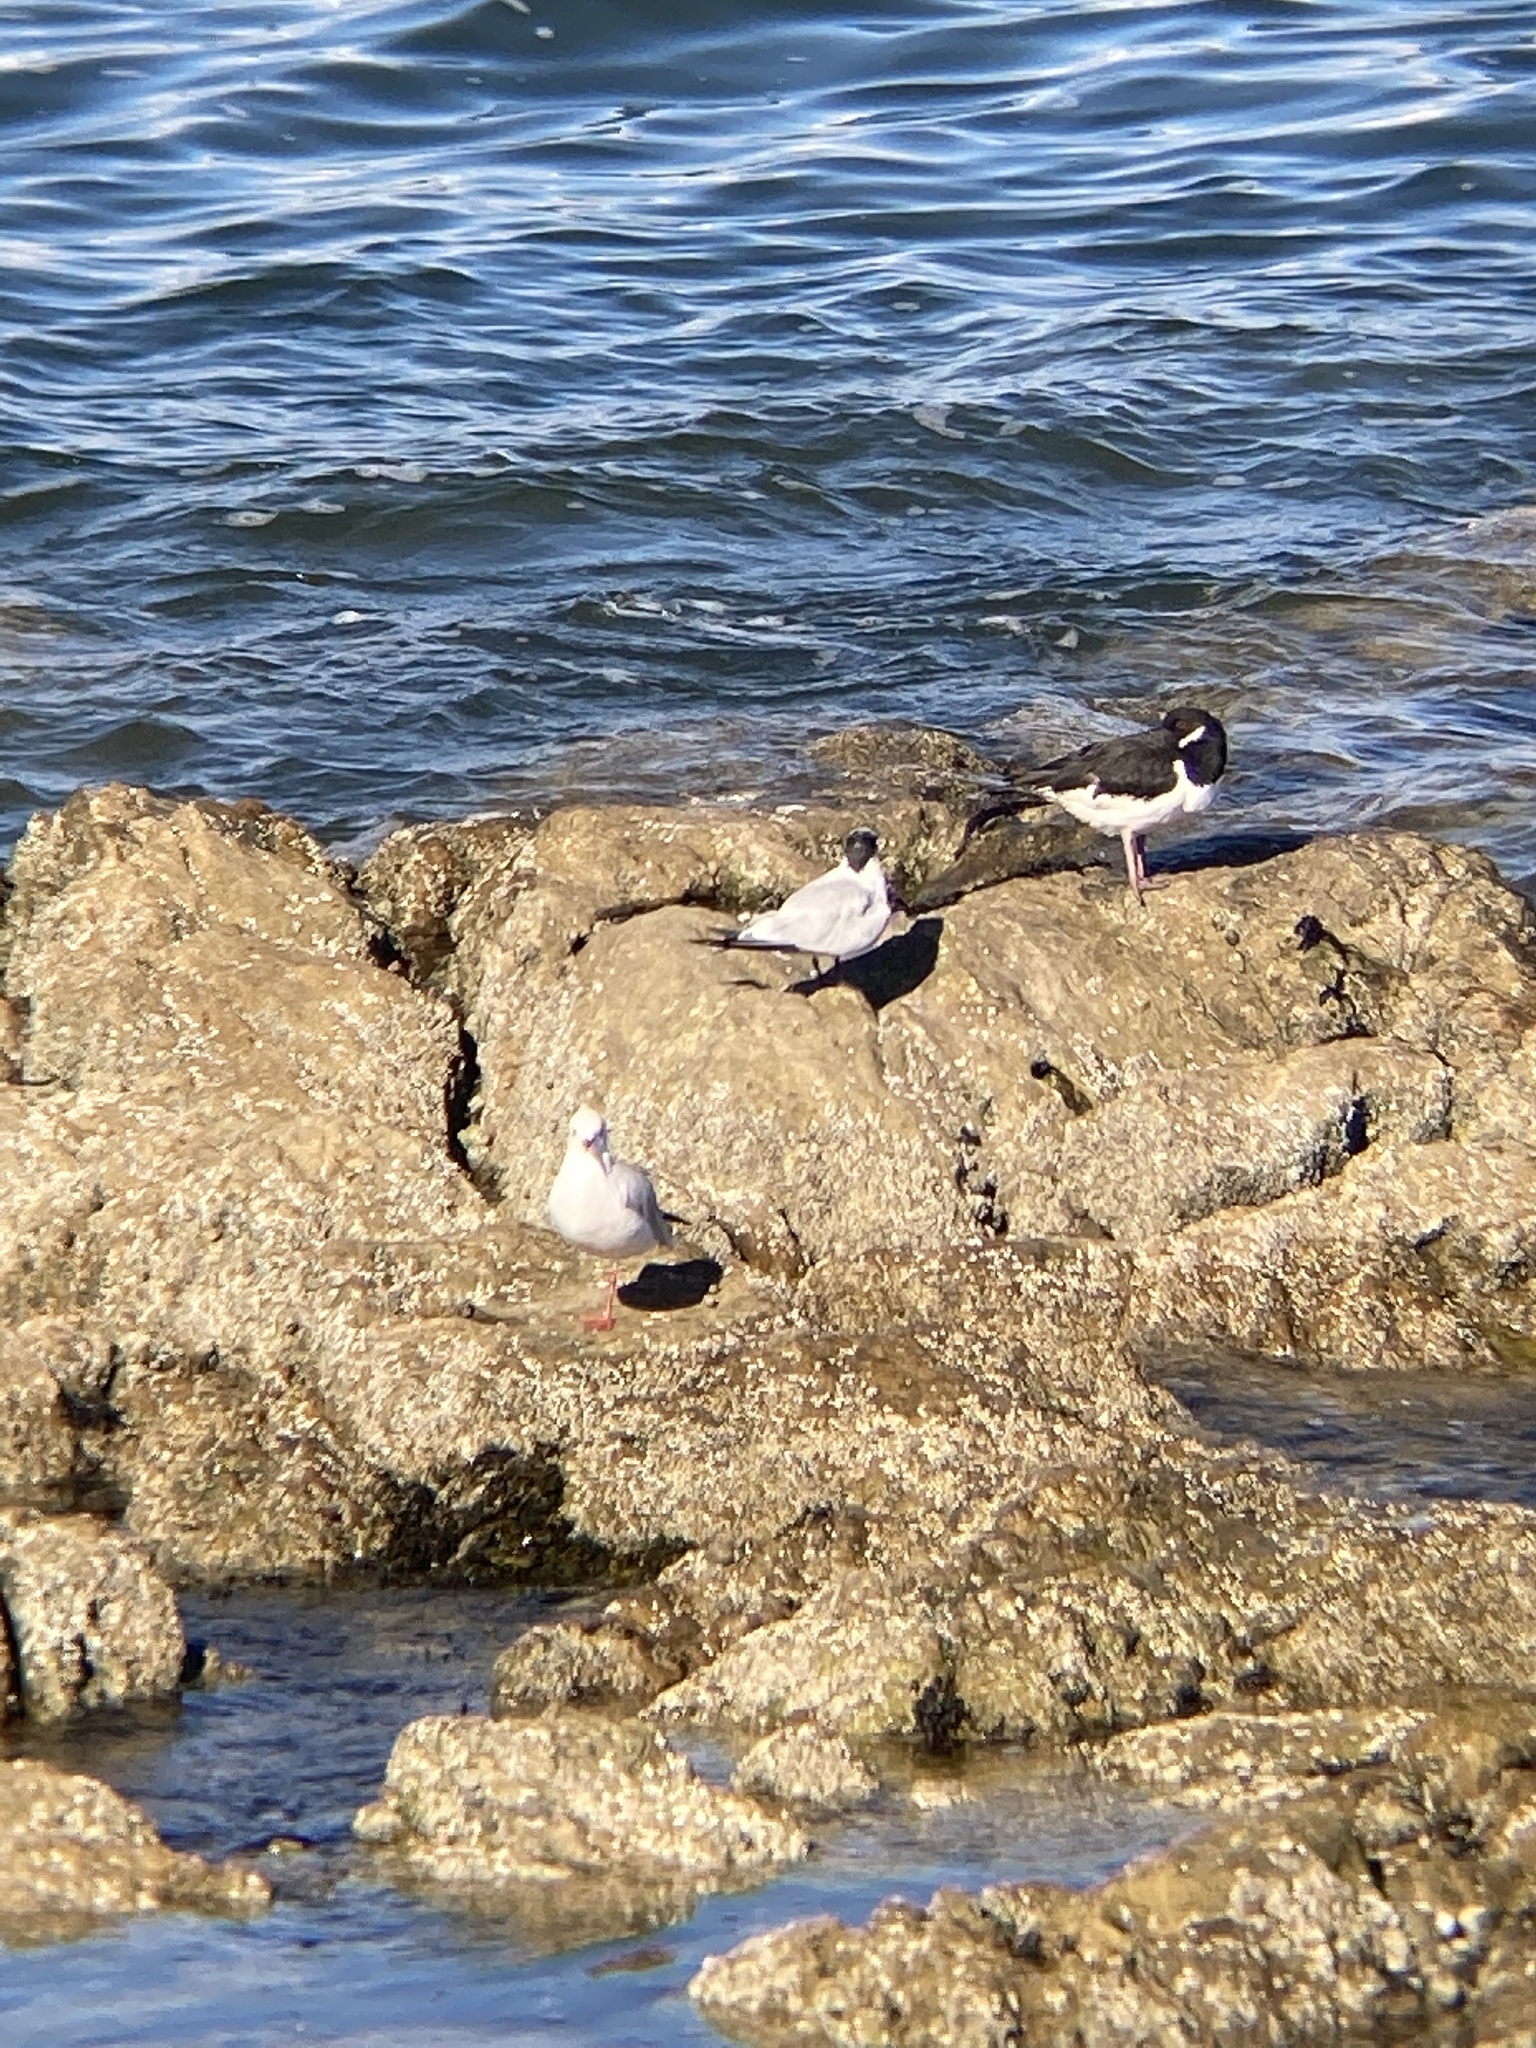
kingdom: Animalia
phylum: Chordata
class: Aves
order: Charadriiformes
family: Laridae
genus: Thalasseus
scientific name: Thalasseus sandvicensis
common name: Sandwich tern
